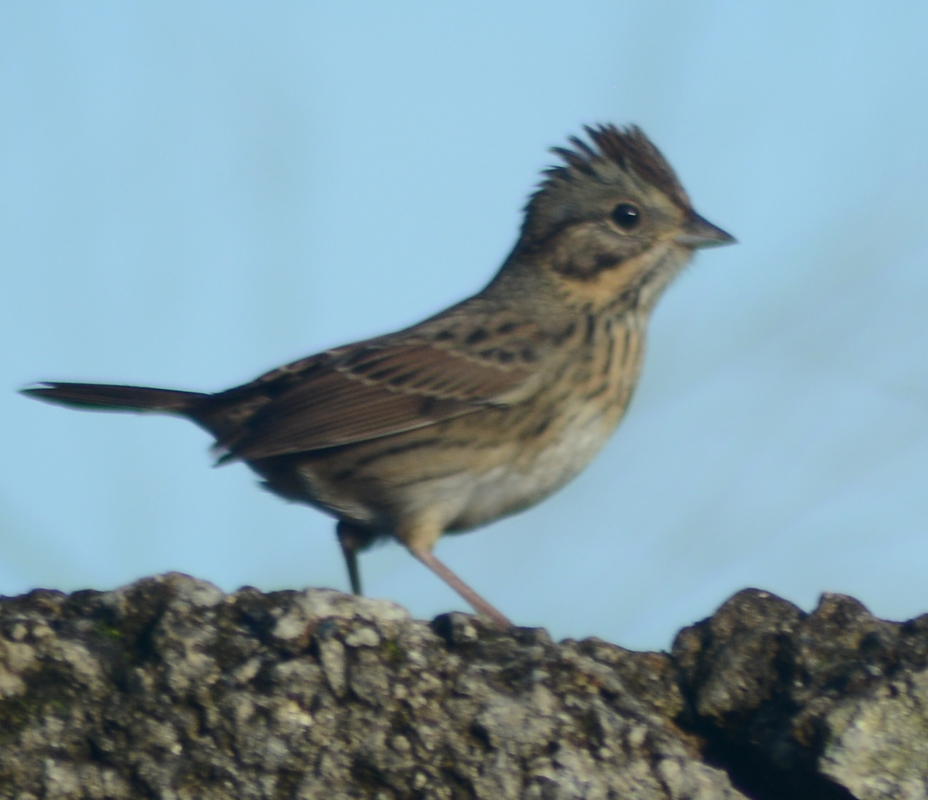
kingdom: Animalia
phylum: Chordata
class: Aves
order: Passeriformes
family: Passerellidae
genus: Melospiza
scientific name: Melospiza lincolnii
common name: Lincoln's sparrow
